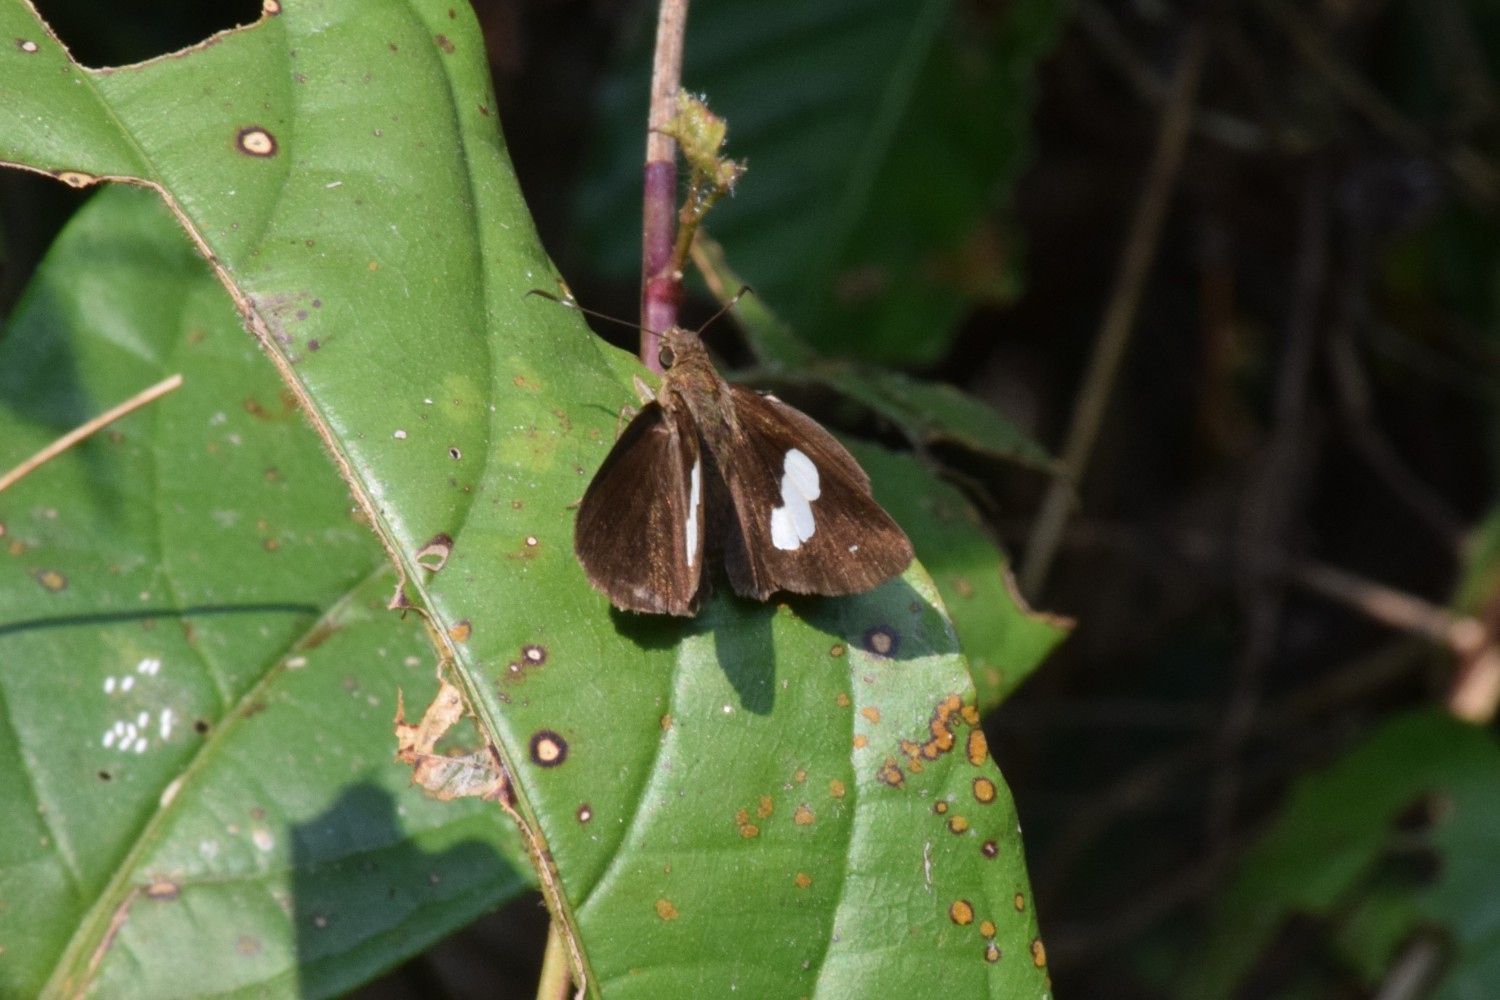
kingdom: Animalia
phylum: Arthropoda
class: Insecta
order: Lepidoptera
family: Hesperiidae
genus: Notocrypta
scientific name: Notocrypta paralysos
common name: Common banded demon
